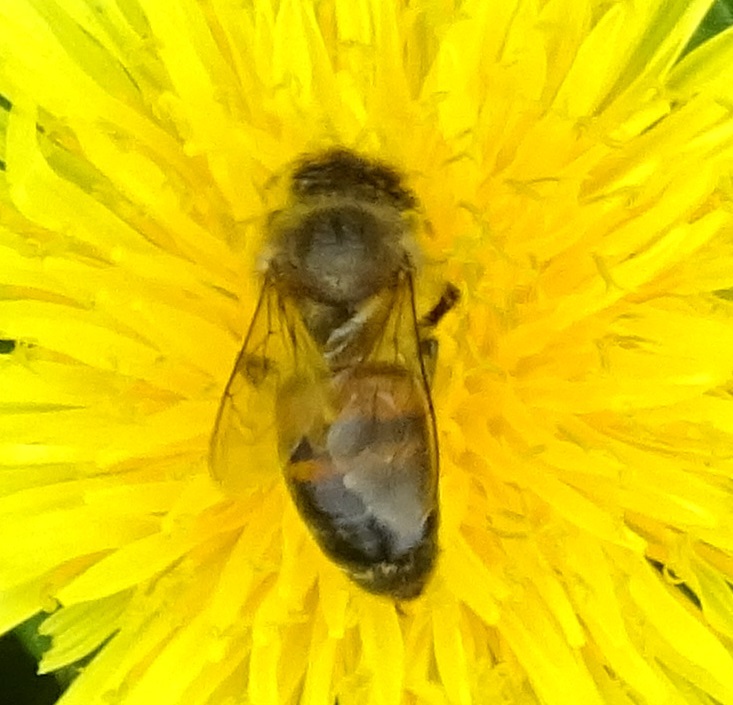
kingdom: Animalia
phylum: Arthropoda
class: Insecta
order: Hymenoptera
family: Apidae
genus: Apis
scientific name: Apis mellifera
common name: Honey bee
